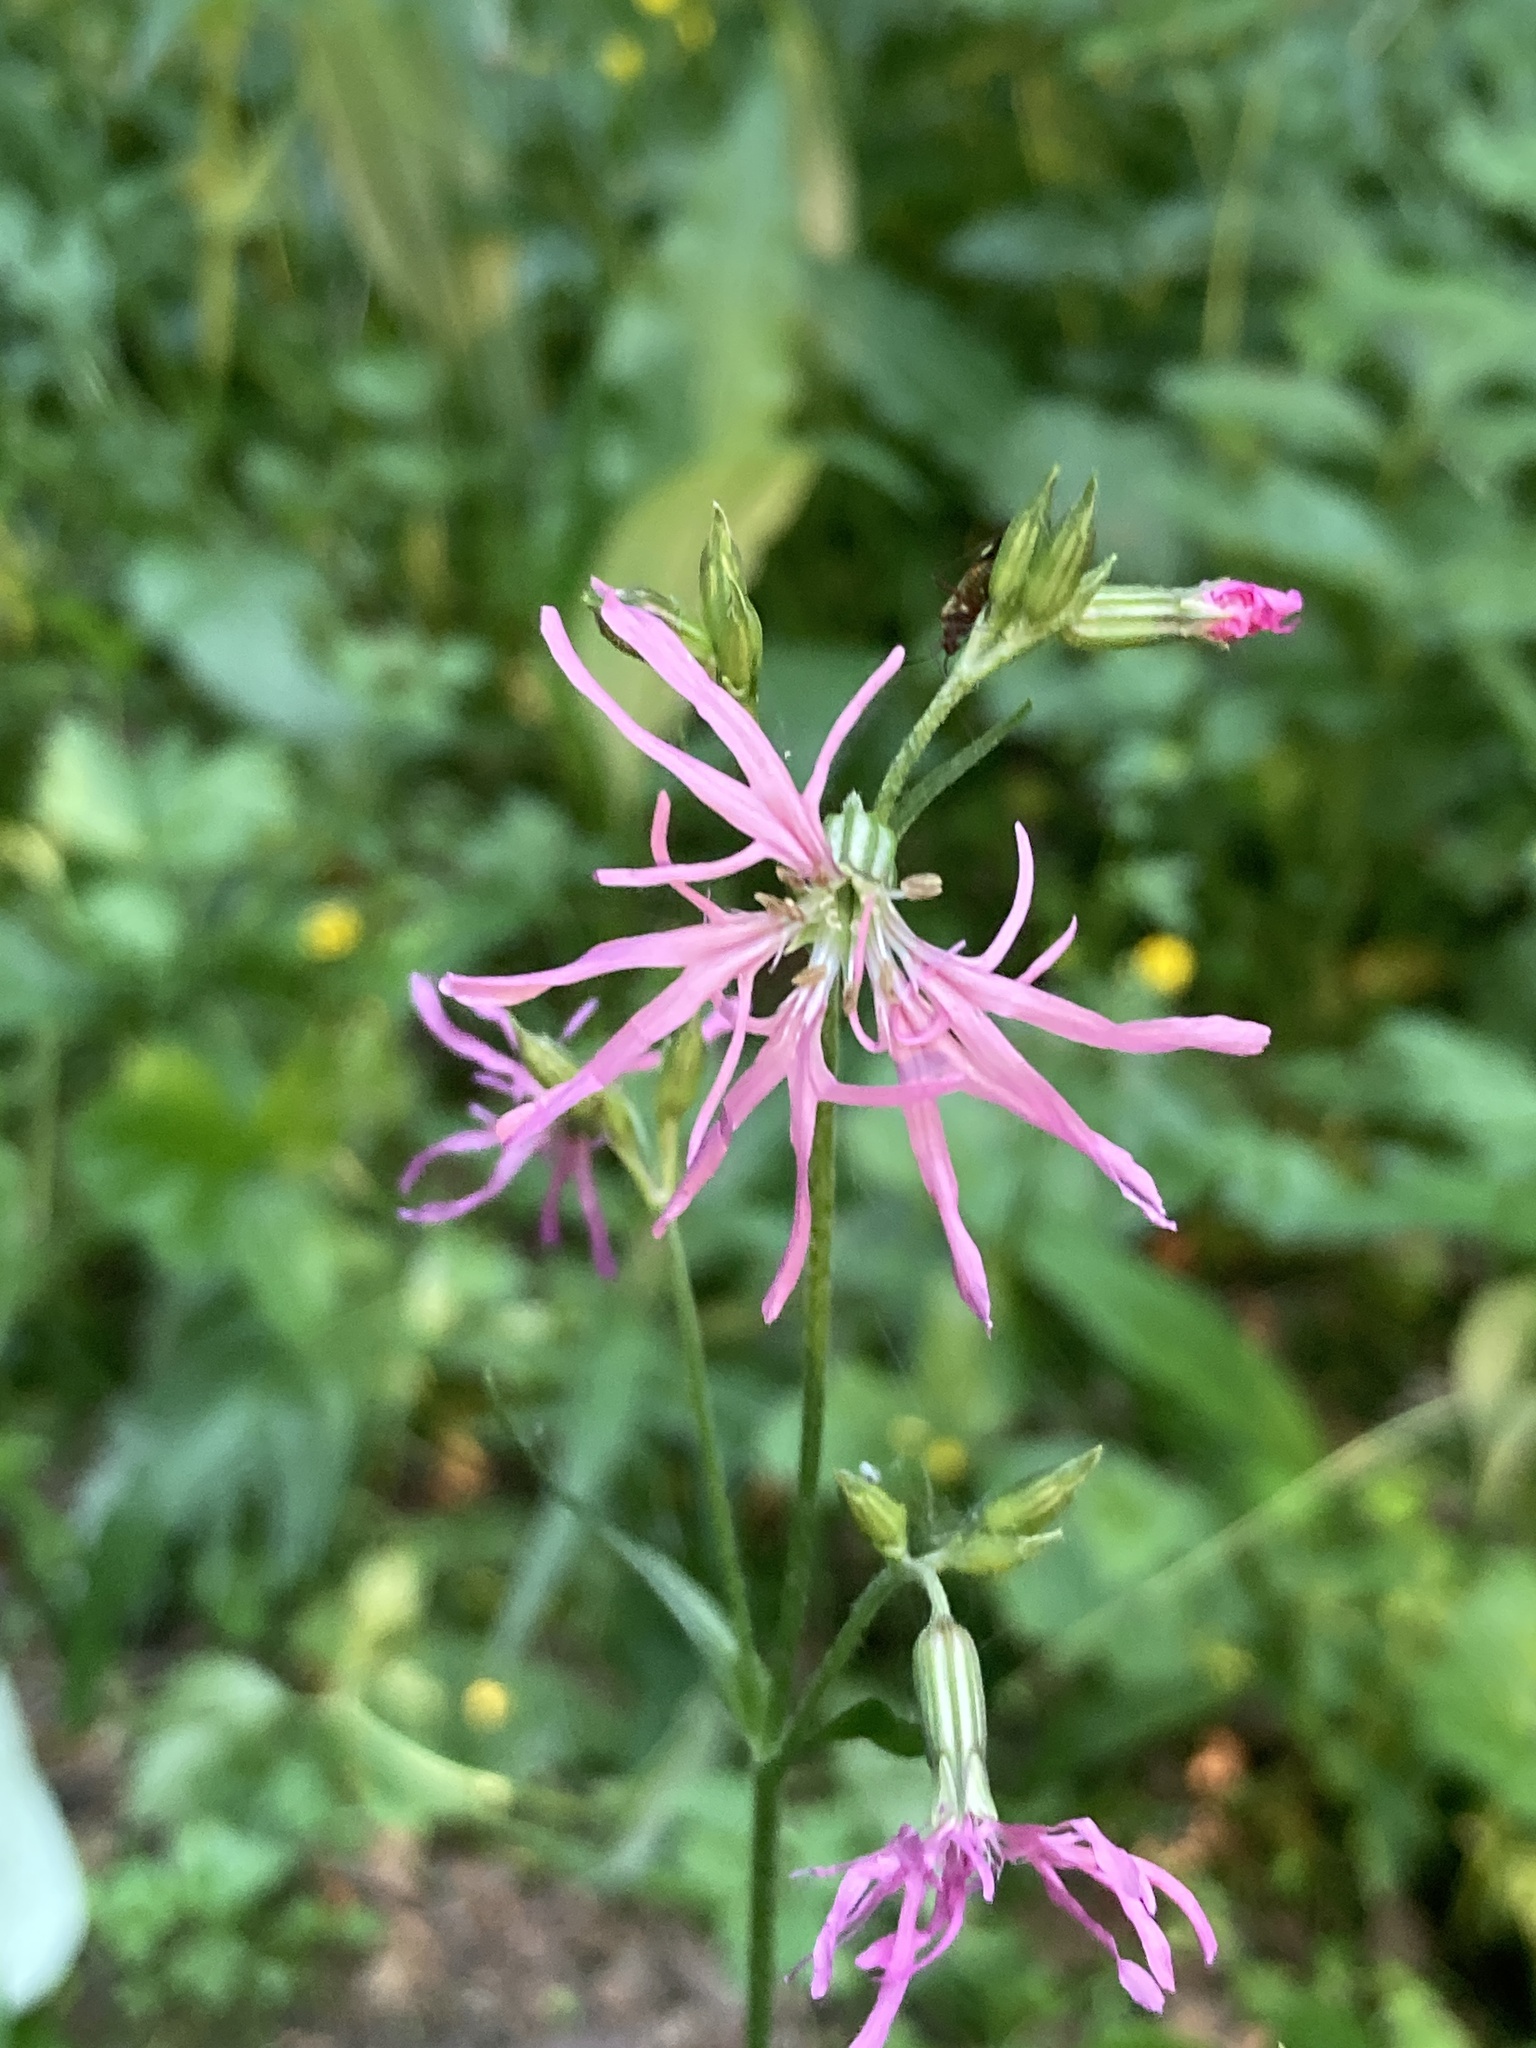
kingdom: Plantae
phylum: Tracheophyta
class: Magnoliopsida
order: Caryophyllales
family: Caryophyllaceae
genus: Silene
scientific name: Silene flos-cuculi
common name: Ragged-robin
